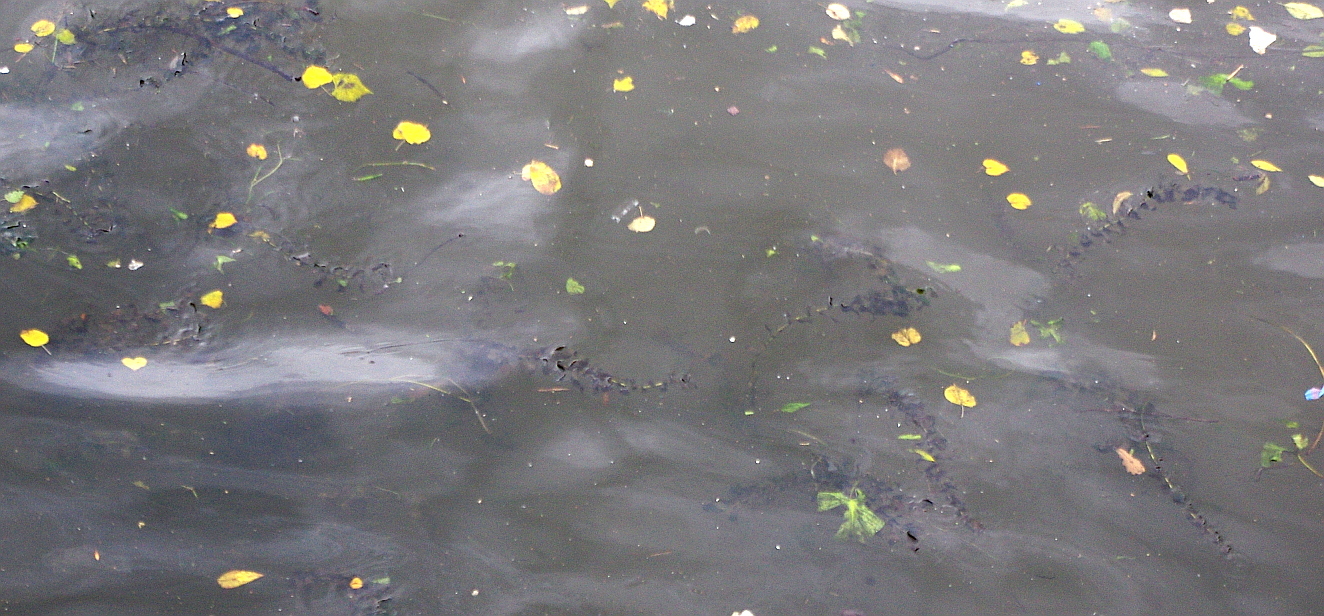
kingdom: Plantae
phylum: Tracheophyta
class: Liliopsida
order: Alismatales
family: Potamogetonaceae
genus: Potamogeton
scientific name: Potamogeton perfoliatus
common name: Perfoliate pondweed
